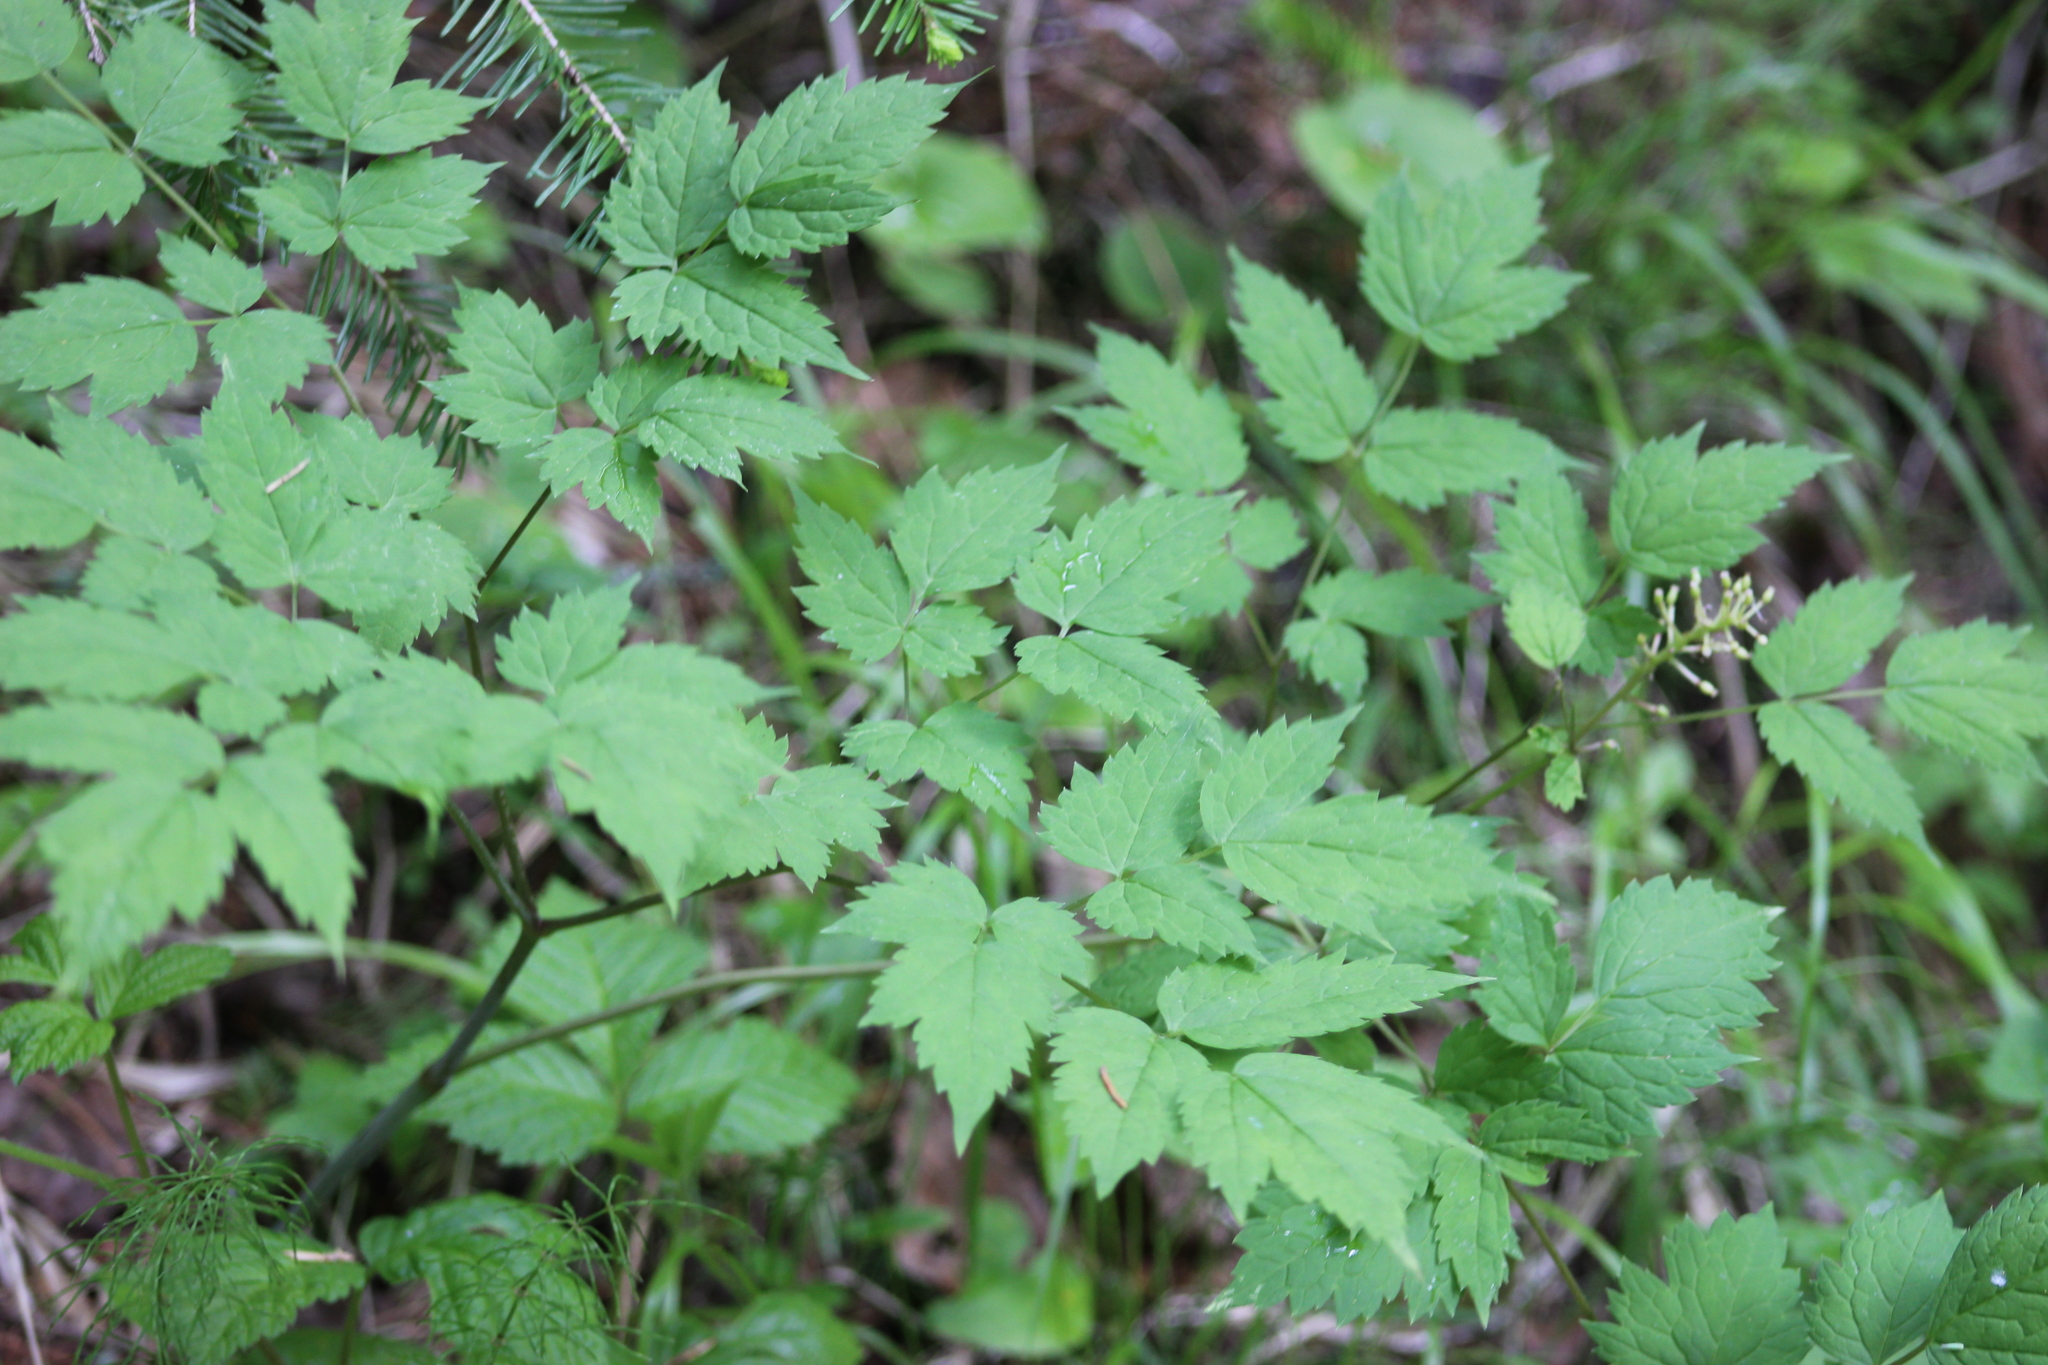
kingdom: Plantae
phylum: Tracheophyta
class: Magnoliopsida
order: Ranunculales
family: Ranunculaceae
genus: Actaea
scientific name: Actaea spicata
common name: Baneberry
